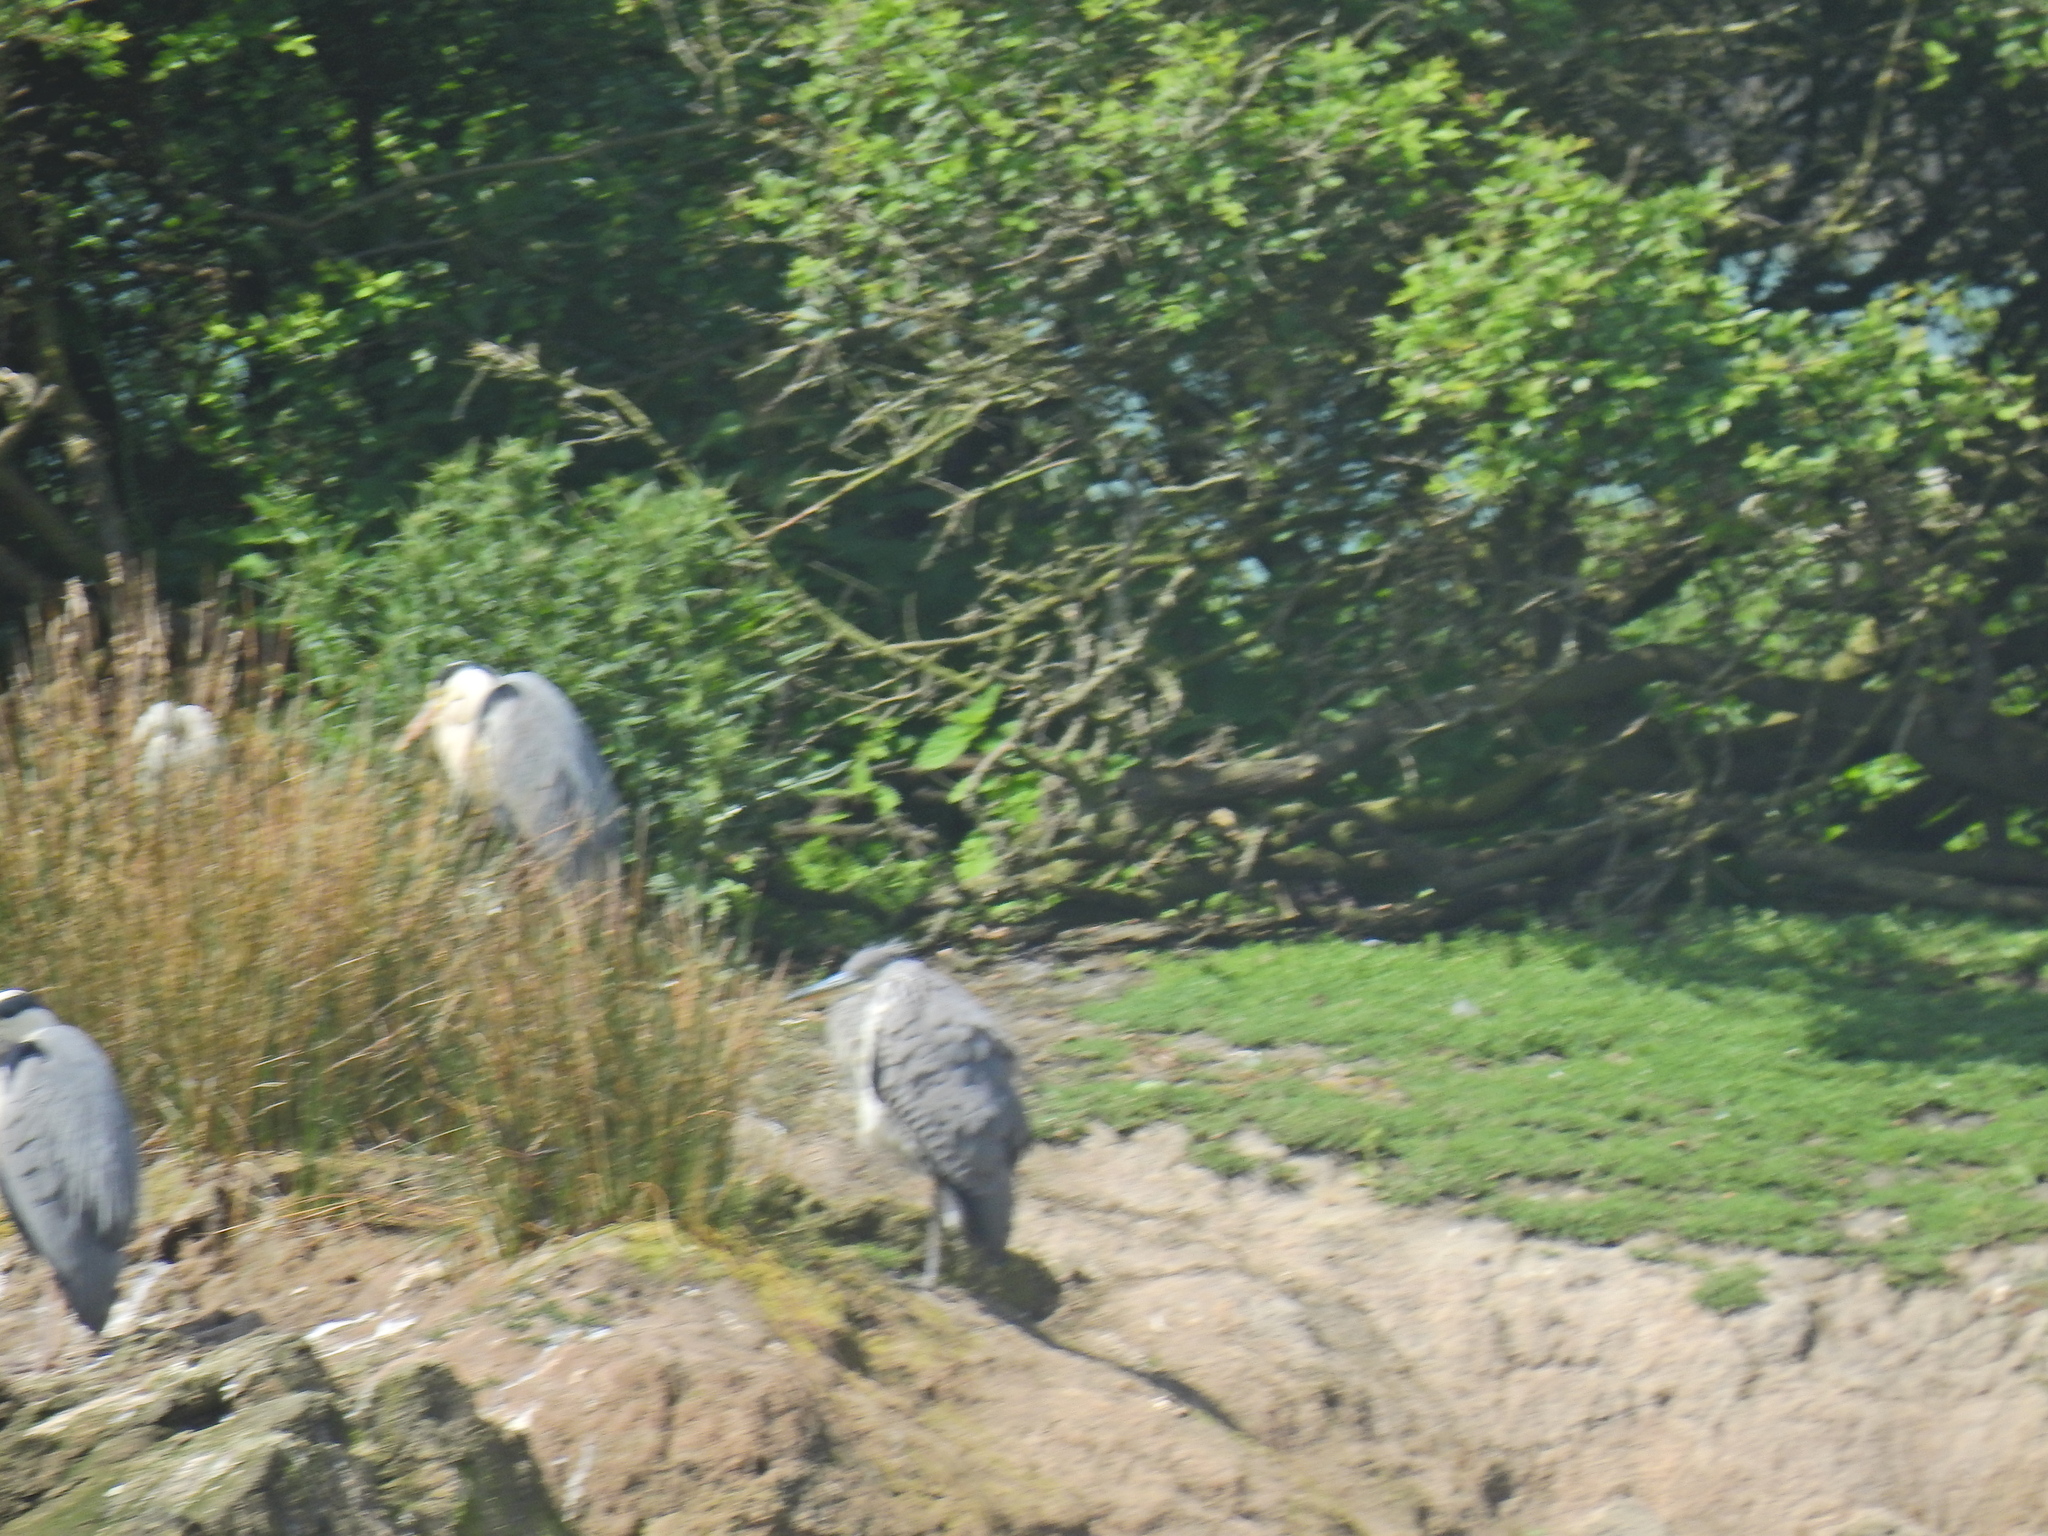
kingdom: Animalia
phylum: Chordata
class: Aves
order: Pelecaniformes
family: Ardeidae
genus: Ardea
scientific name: Ardea cinerea
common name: Grey heron
